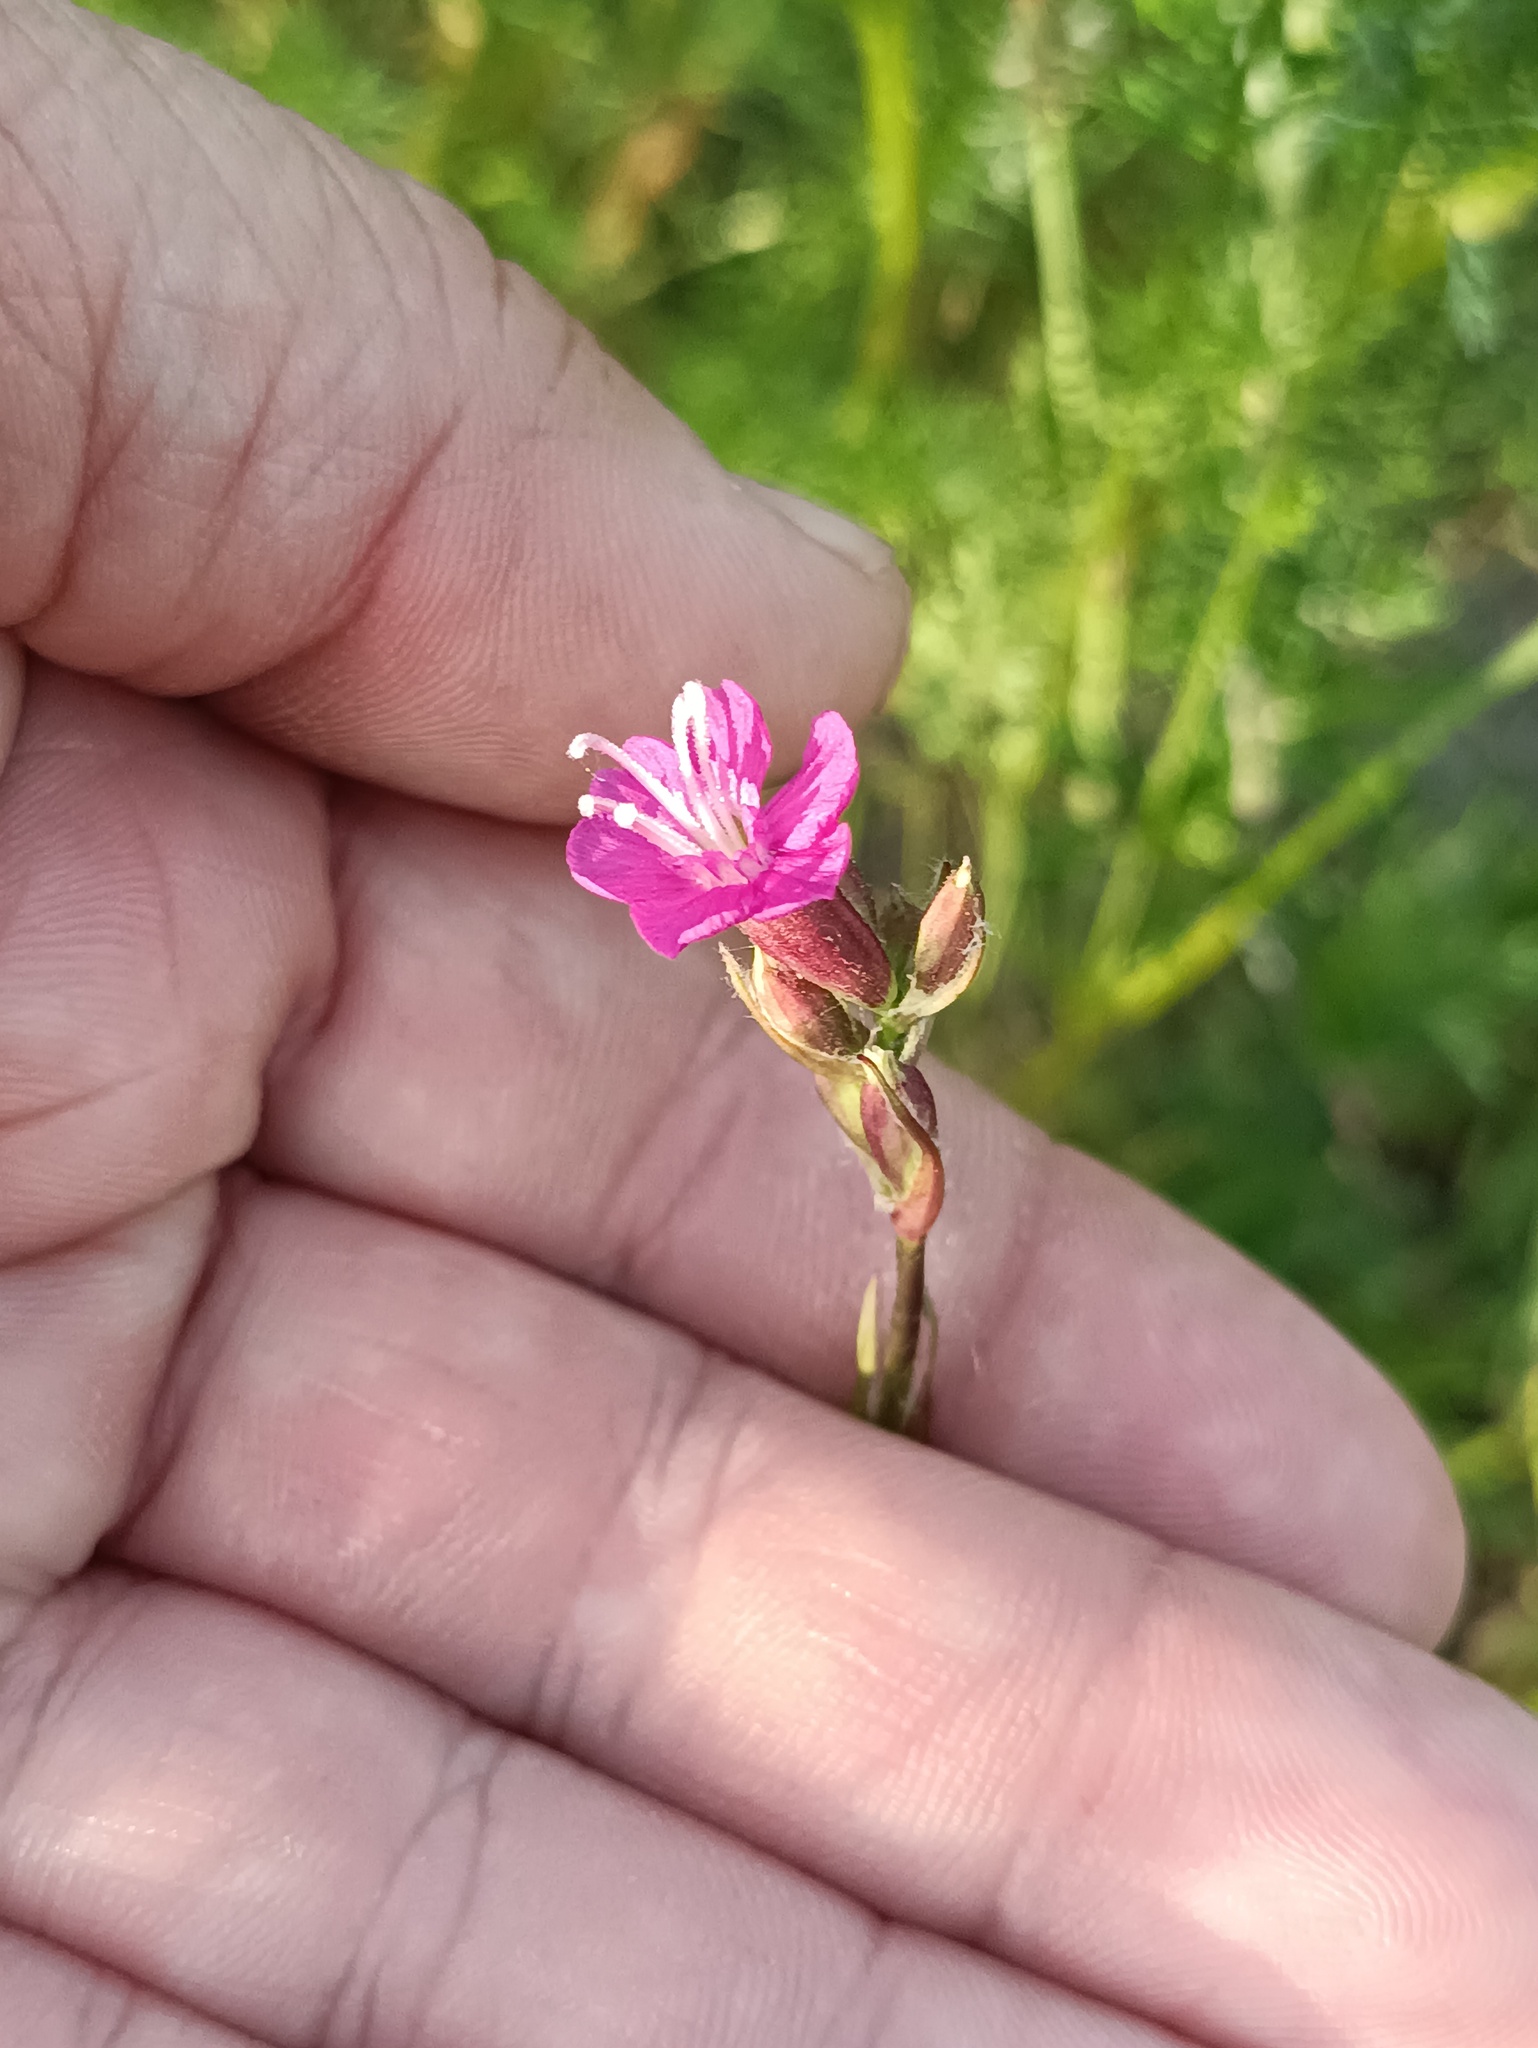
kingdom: Plantae
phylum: Tracheophyta
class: Magnoliopsida
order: Caryophyllales
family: Caryophyllaceae
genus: Viscaria
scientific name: Viscaria vulgaris
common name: Clammy campion
